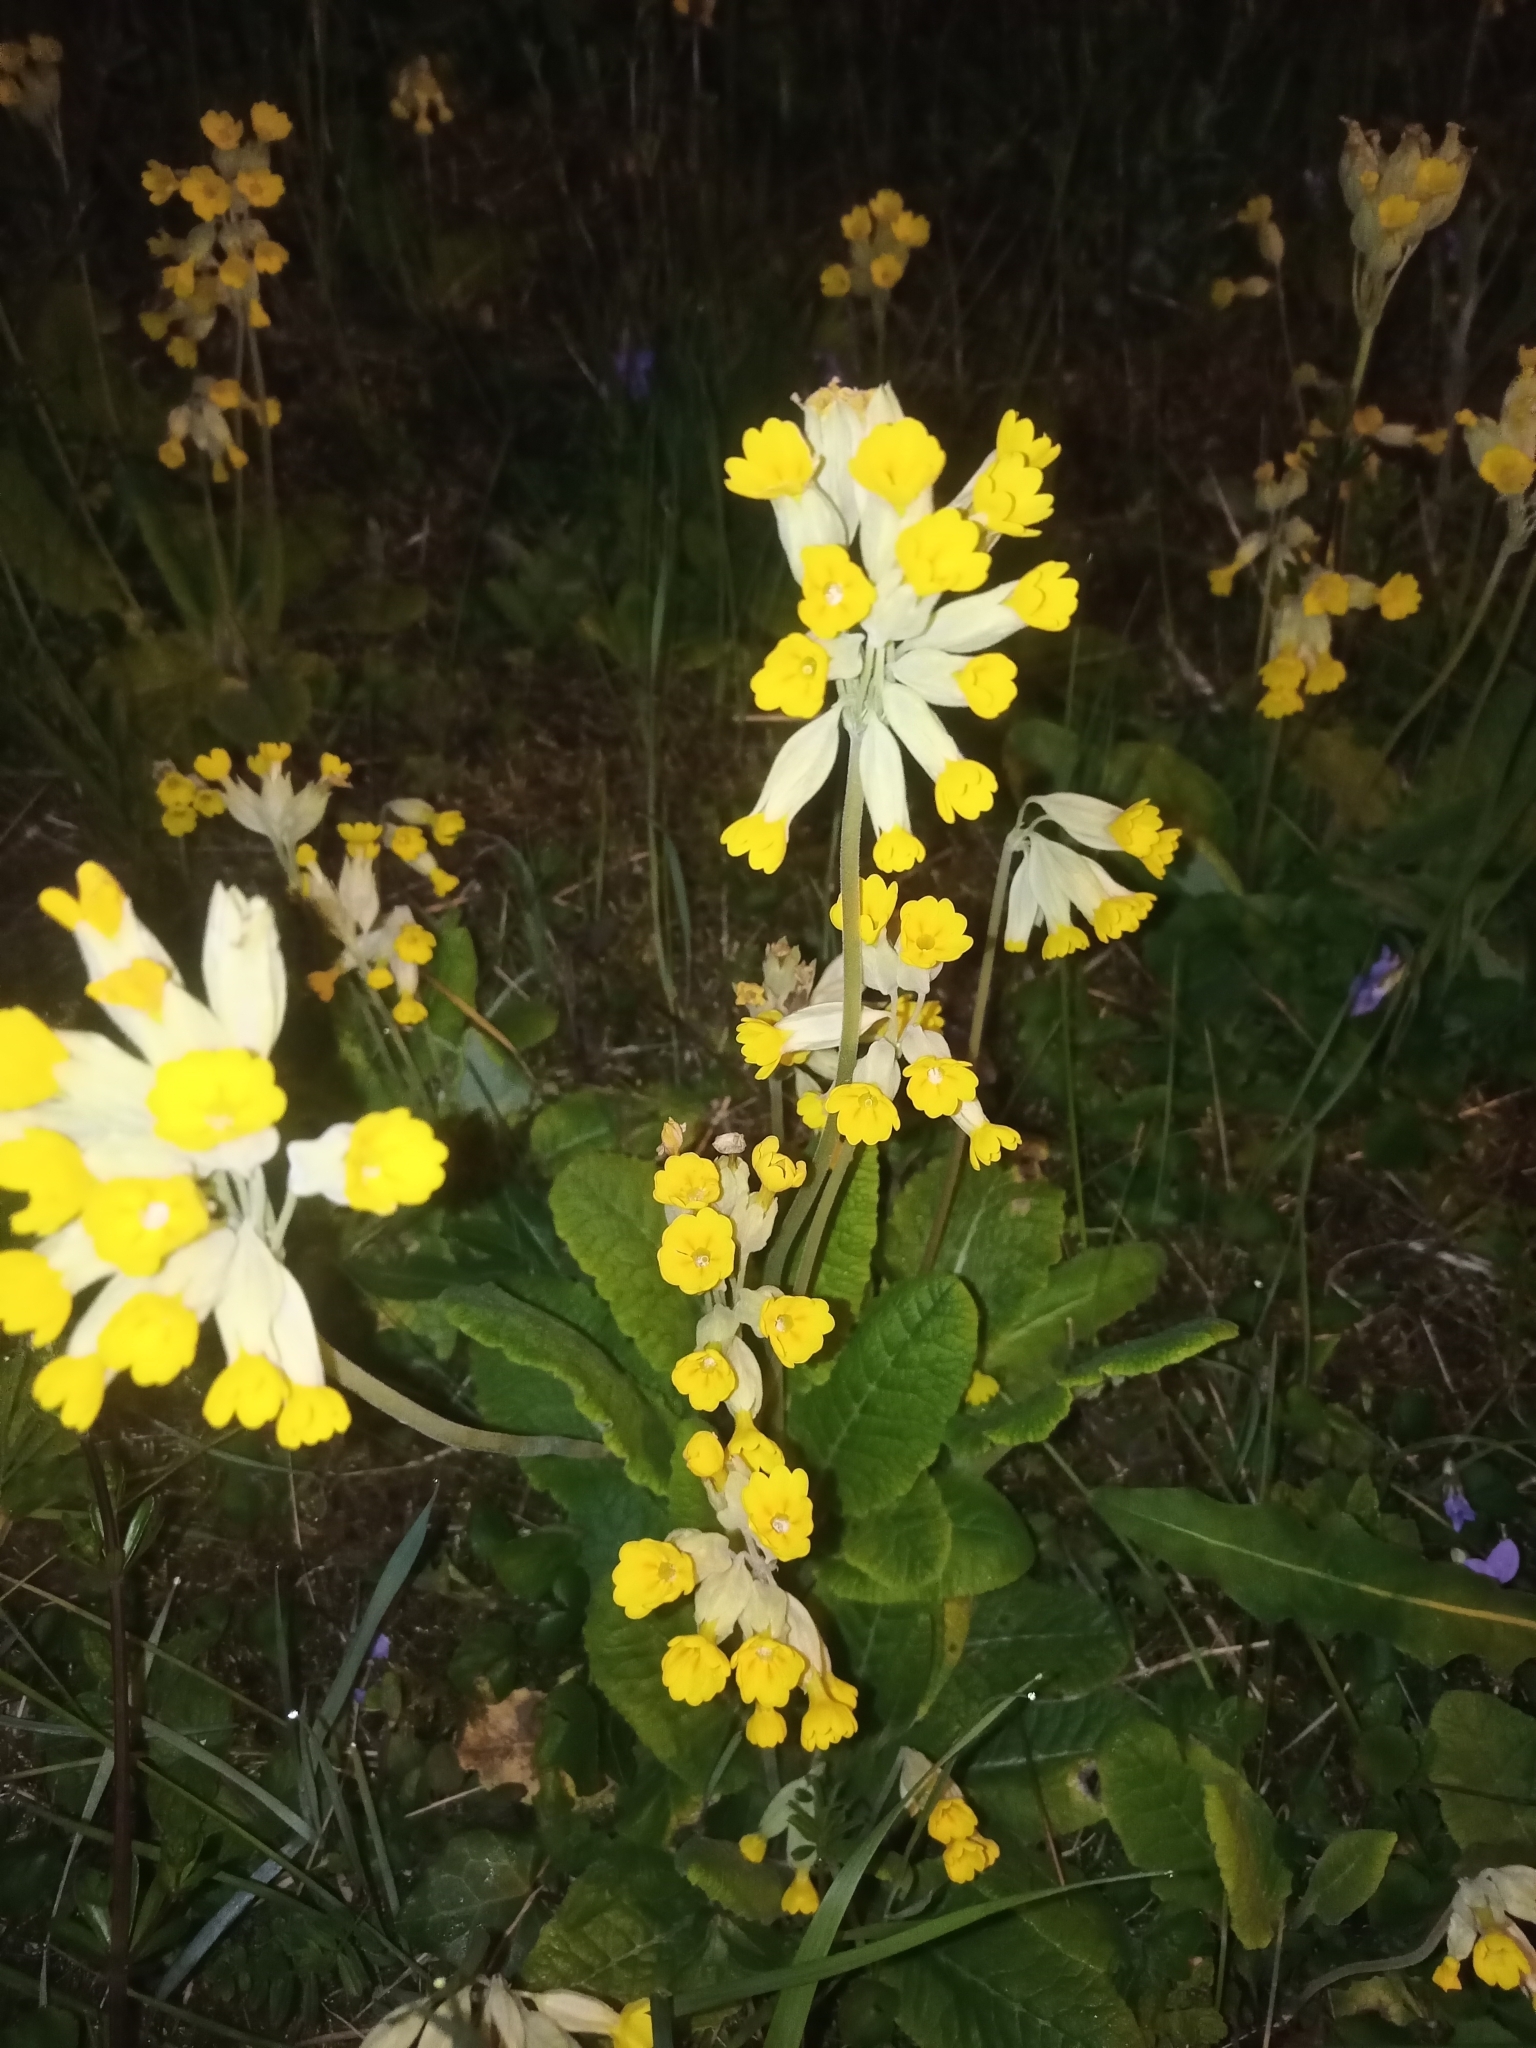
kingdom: Plantae
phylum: Tracheophyta
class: Magnoliopsida
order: Ericales
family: Primulaceae
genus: Primula
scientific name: Primula veris
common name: Cowslip
